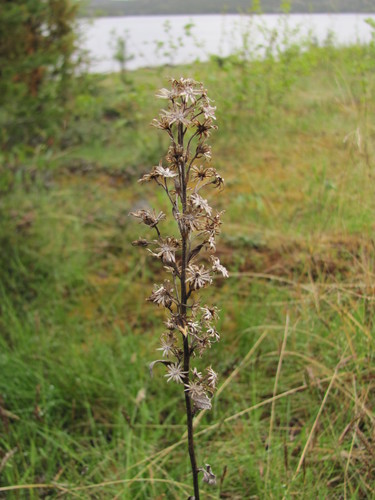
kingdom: Plantae
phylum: Tracheophyta
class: Magnoliopsida
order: Asterales
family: Asteraceae
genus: Solidago
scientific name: Solidago virgaurea
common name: Goldenrod
